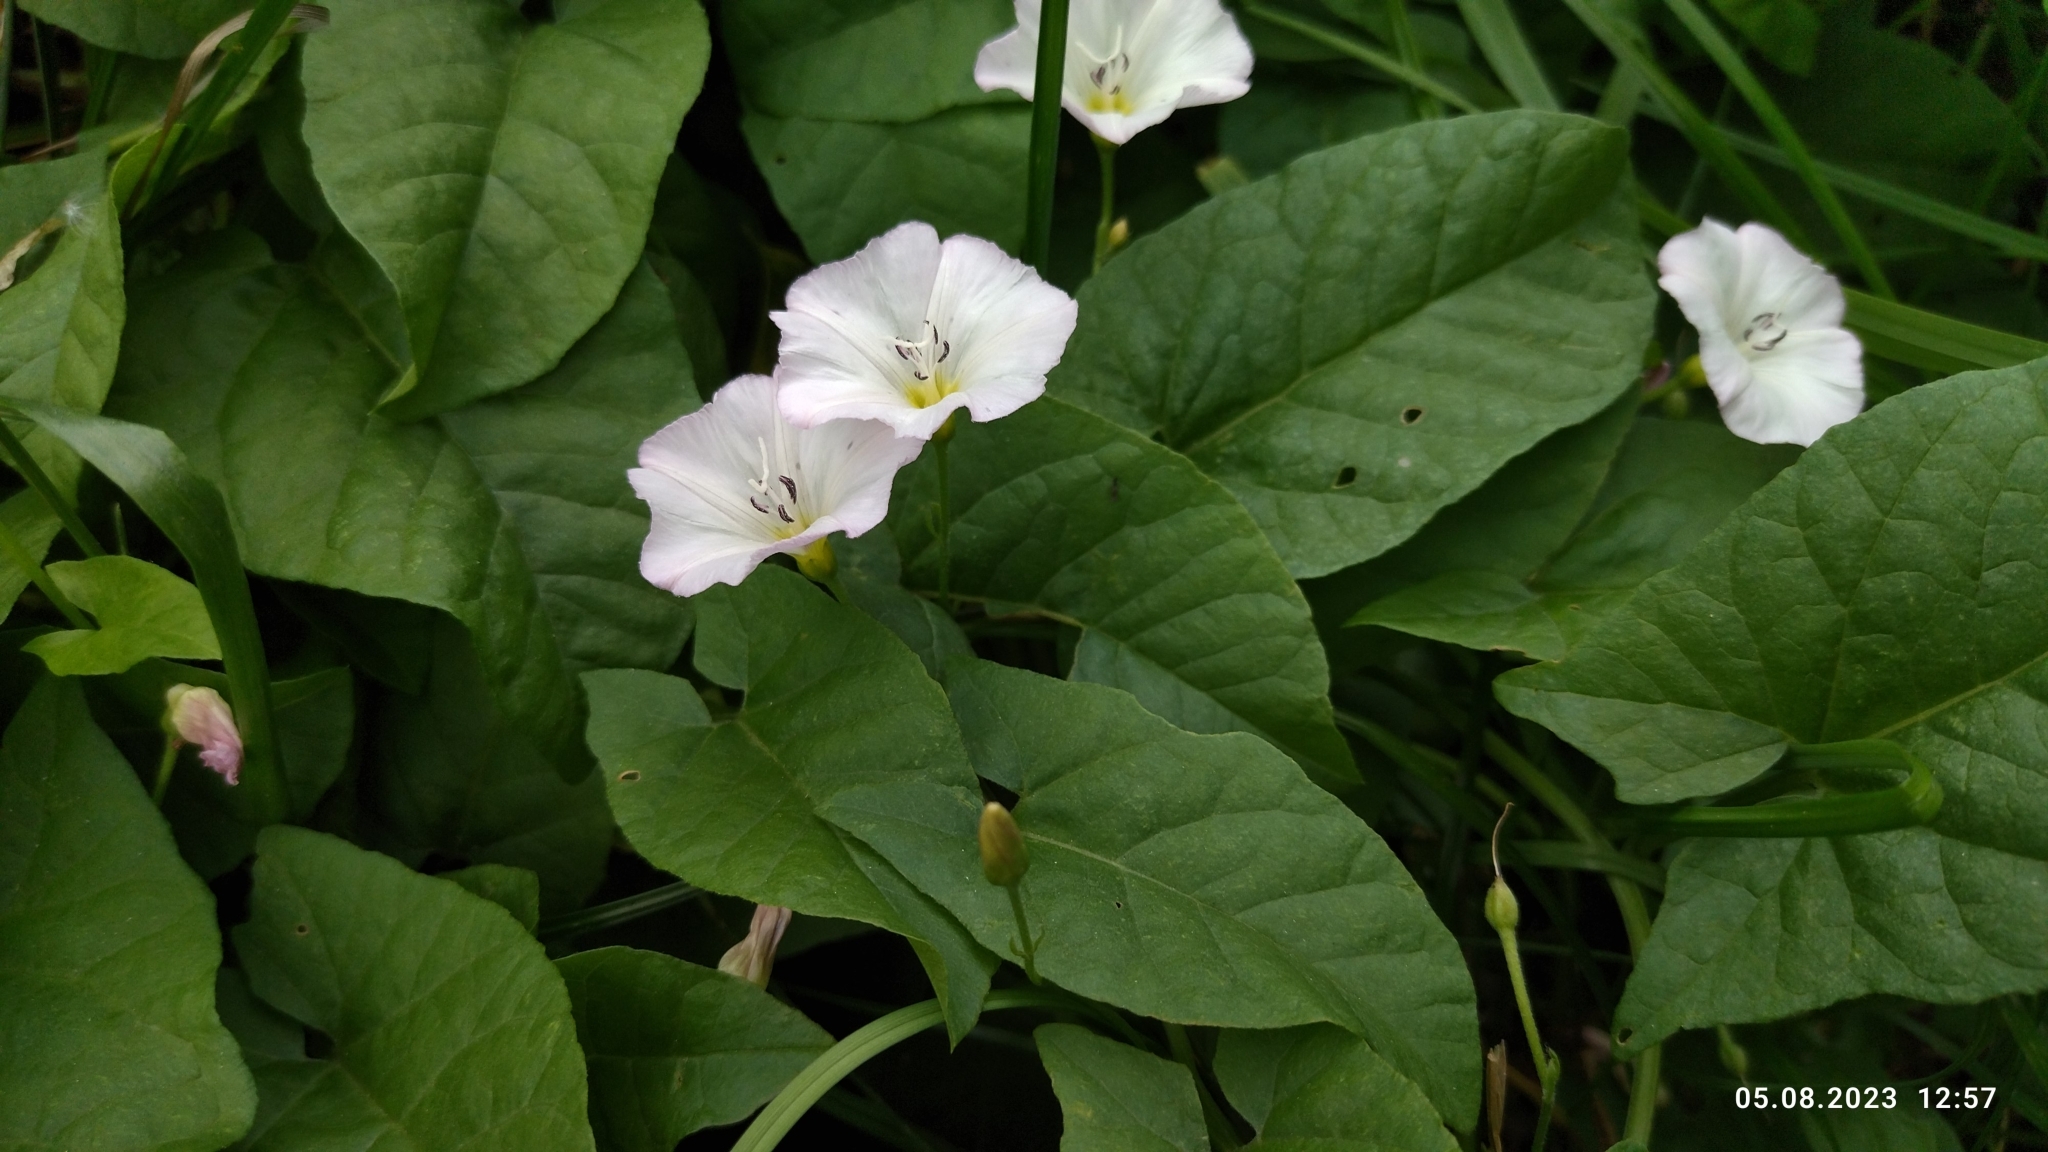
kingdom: Plantae
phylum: Tracheophyta
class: Magnoliopsida
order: Solanales
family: Convolvulaceae
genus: Convolvulus
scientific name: Convolvulus arvensis
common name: Field bindweed
